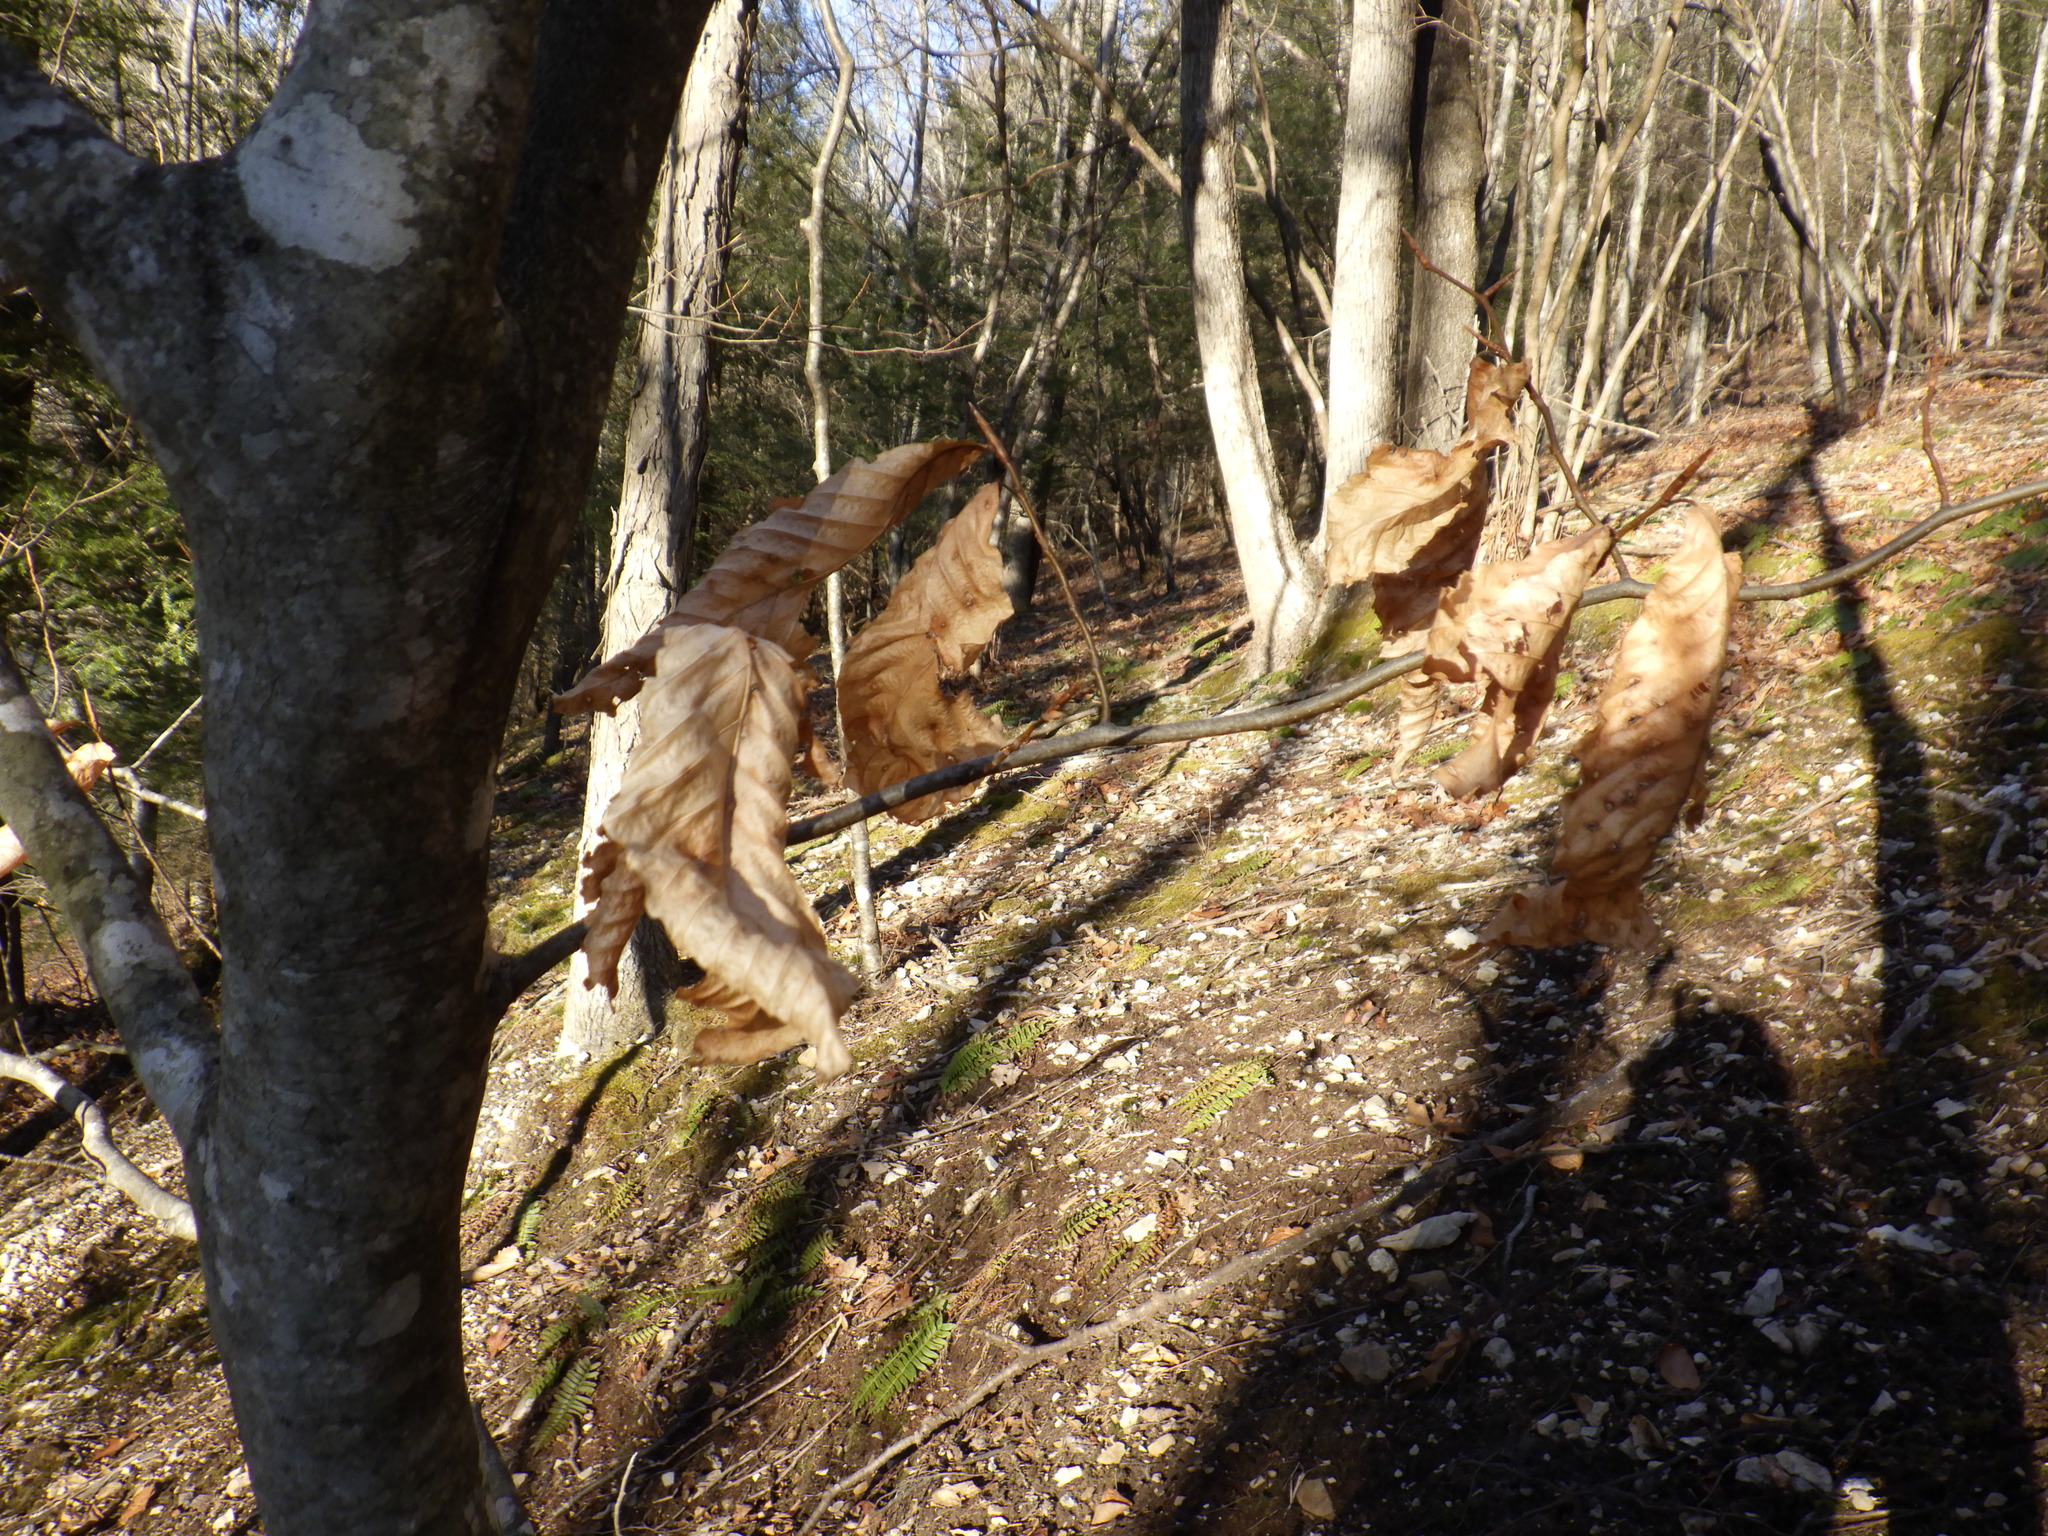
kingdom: Plantae
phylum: Tracheophyta
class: Magnoliopsida
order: Fagales
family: Fagaceae
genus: Fagus
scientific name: Fagus grandifolia
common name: American beech
